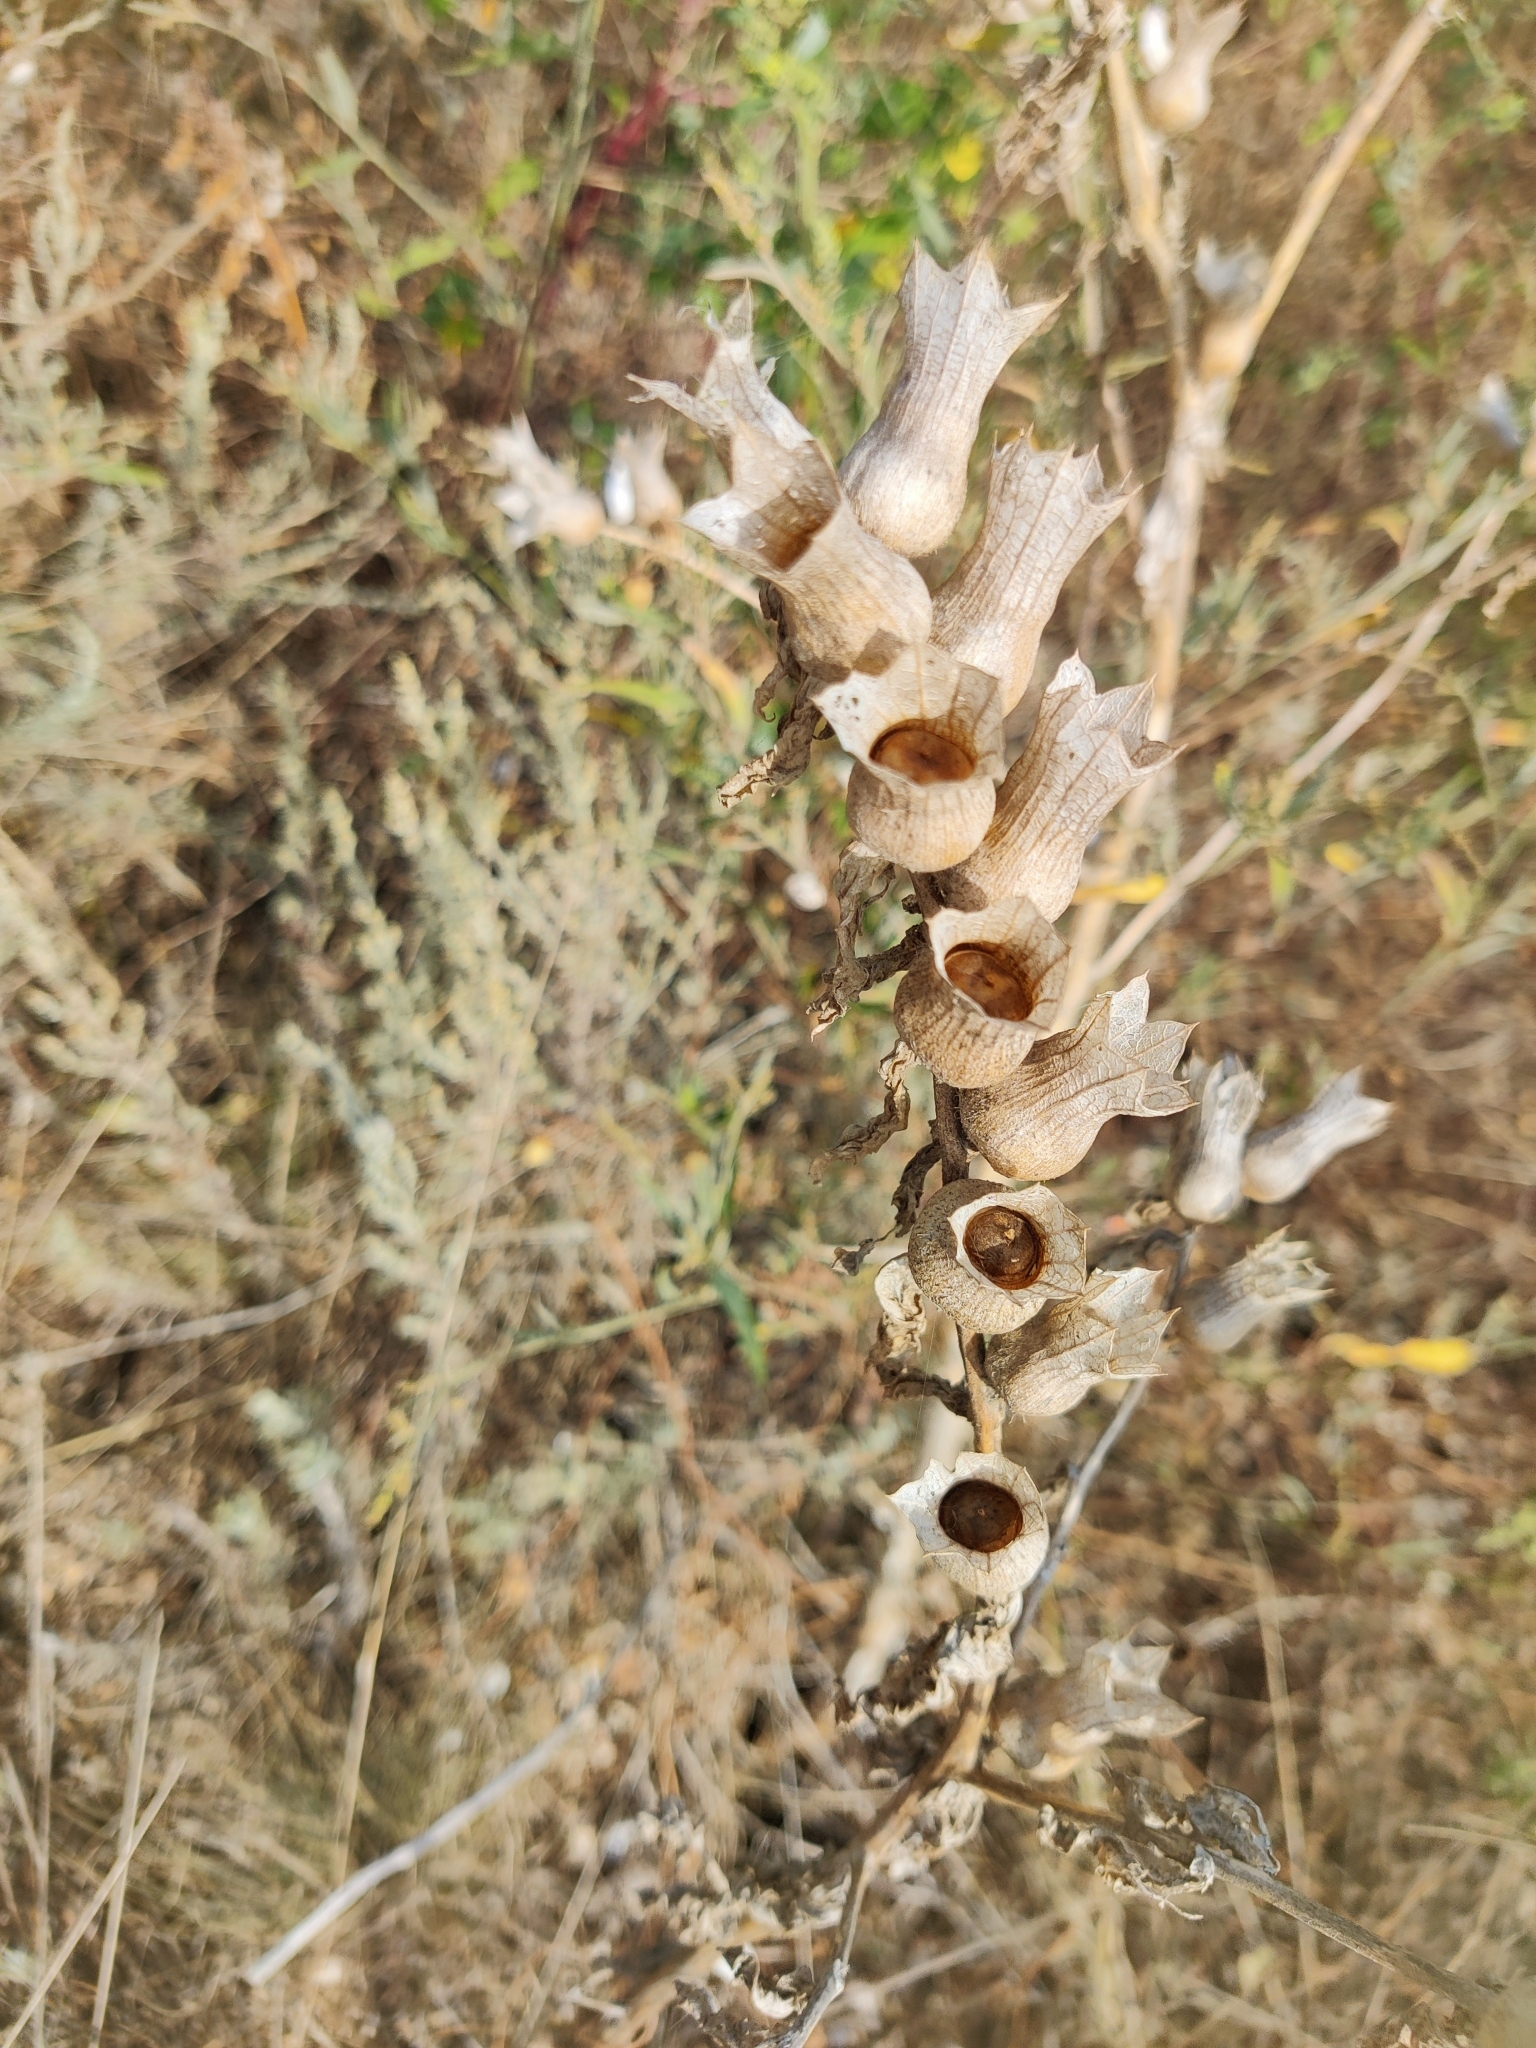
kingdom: Plantae
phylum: Tracheophyta
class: Magnoliopsida
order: Solanales
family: Solanaceae
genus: Hyoscyamus
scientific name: Hyoscyamus niger
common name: Henbane
